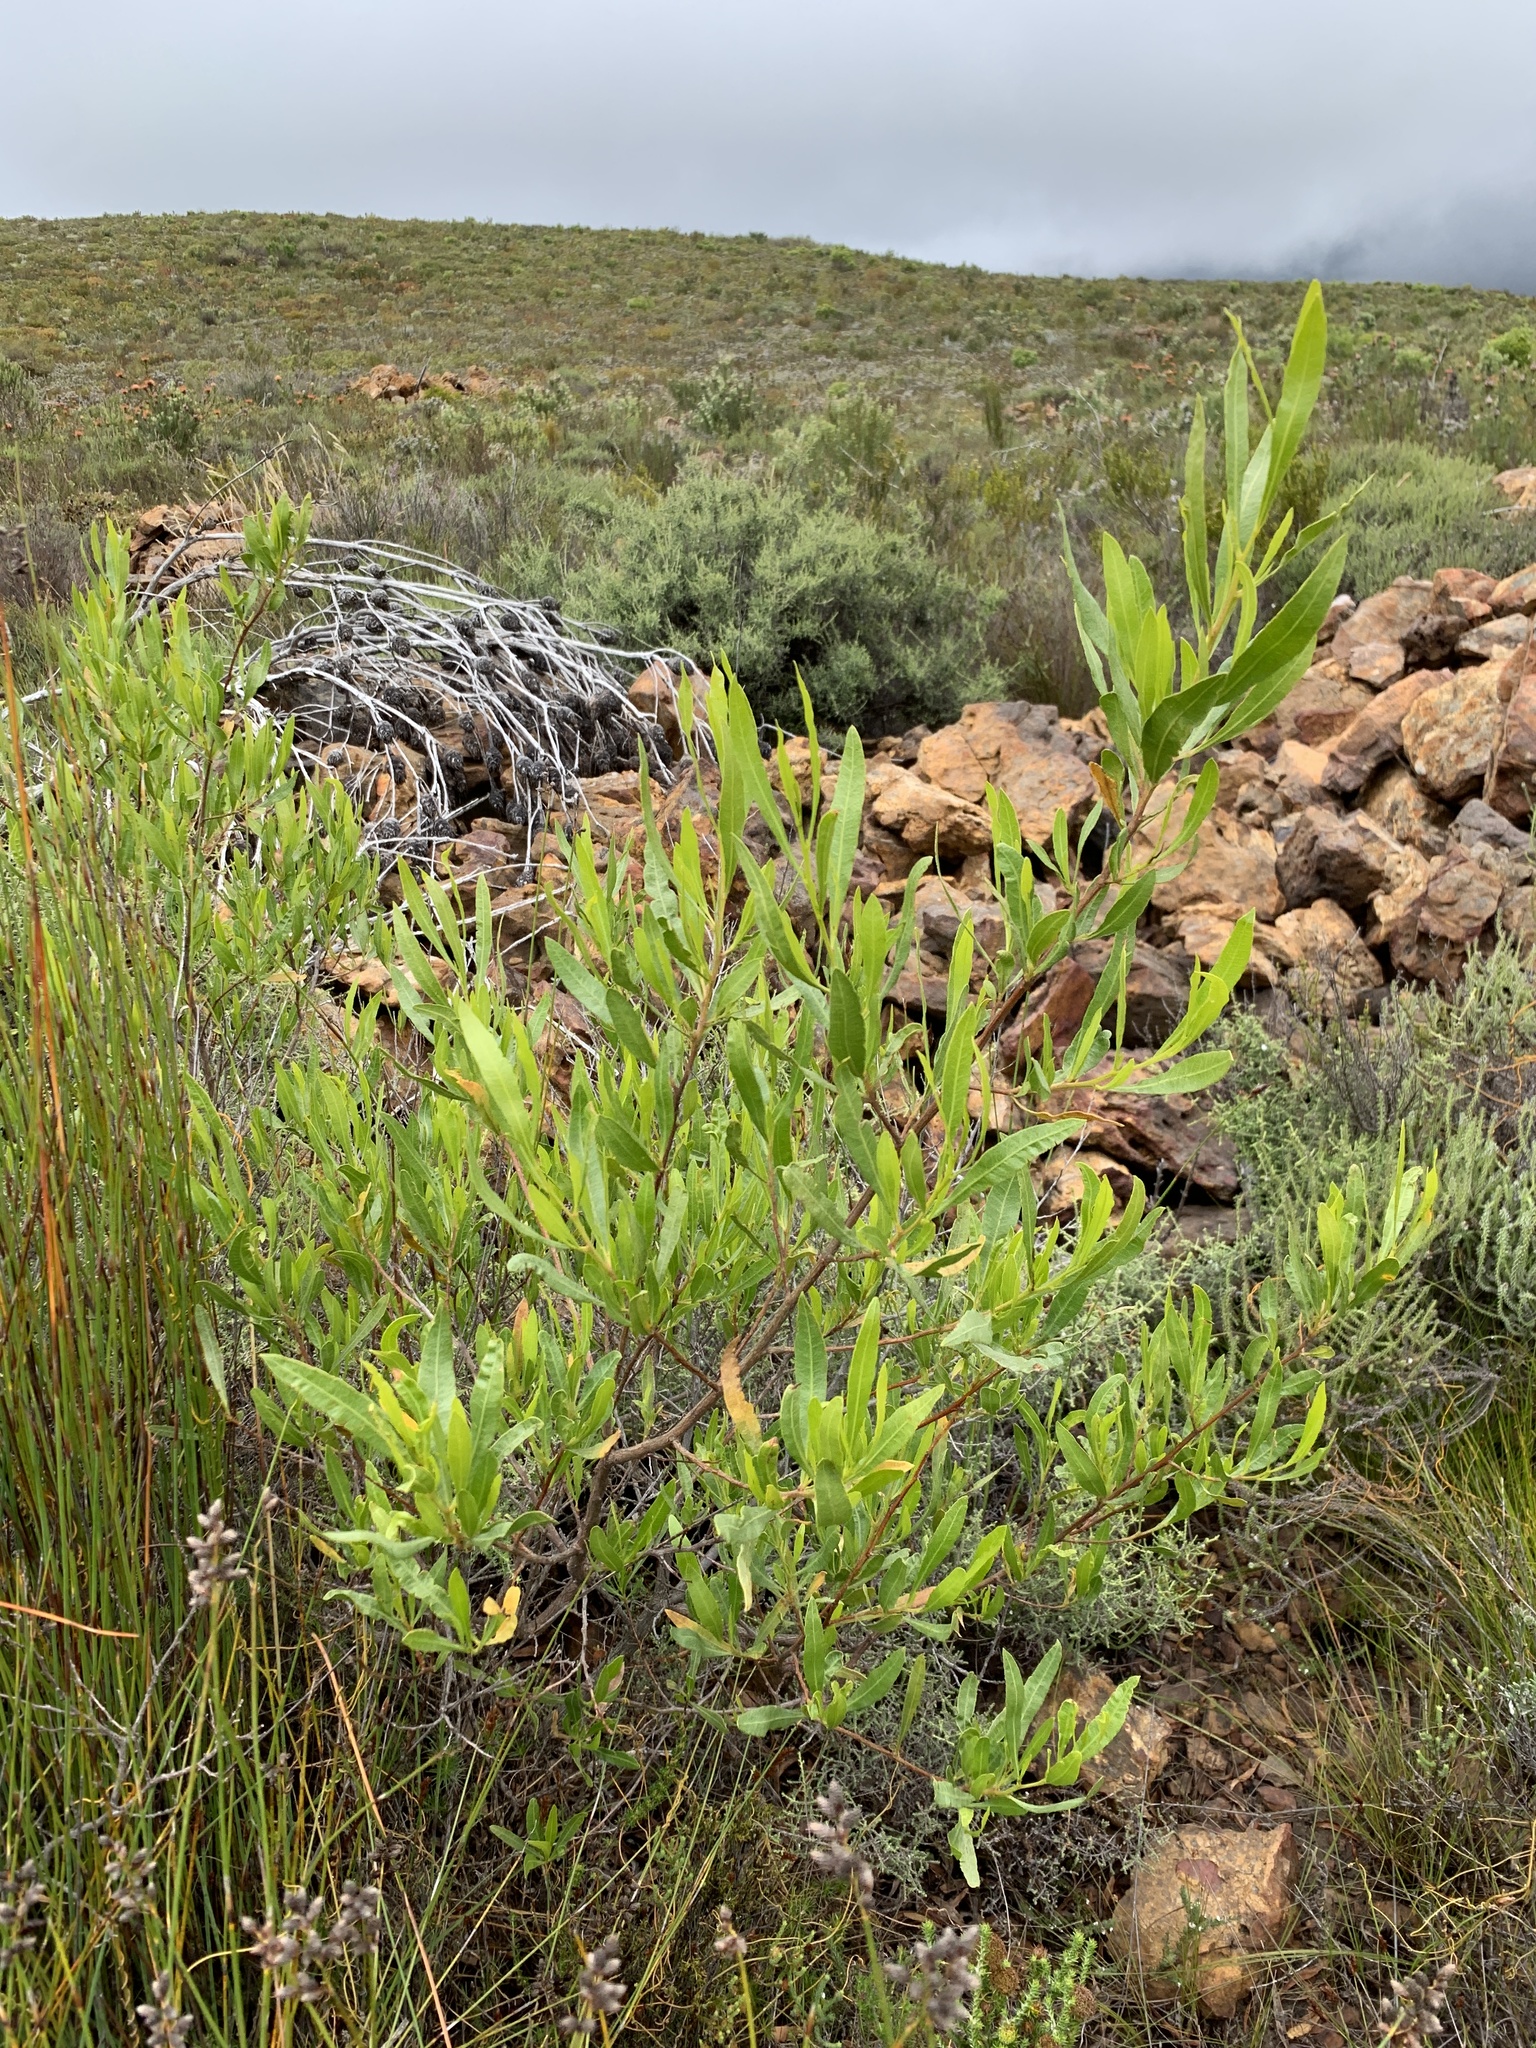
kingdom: Plantae
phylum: Tracheophyta
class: Magnoliopsida
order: Sapindales
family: Sapindaceae
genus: Dodonaea
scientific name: Dodonaea viscosa
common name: Hopbush
